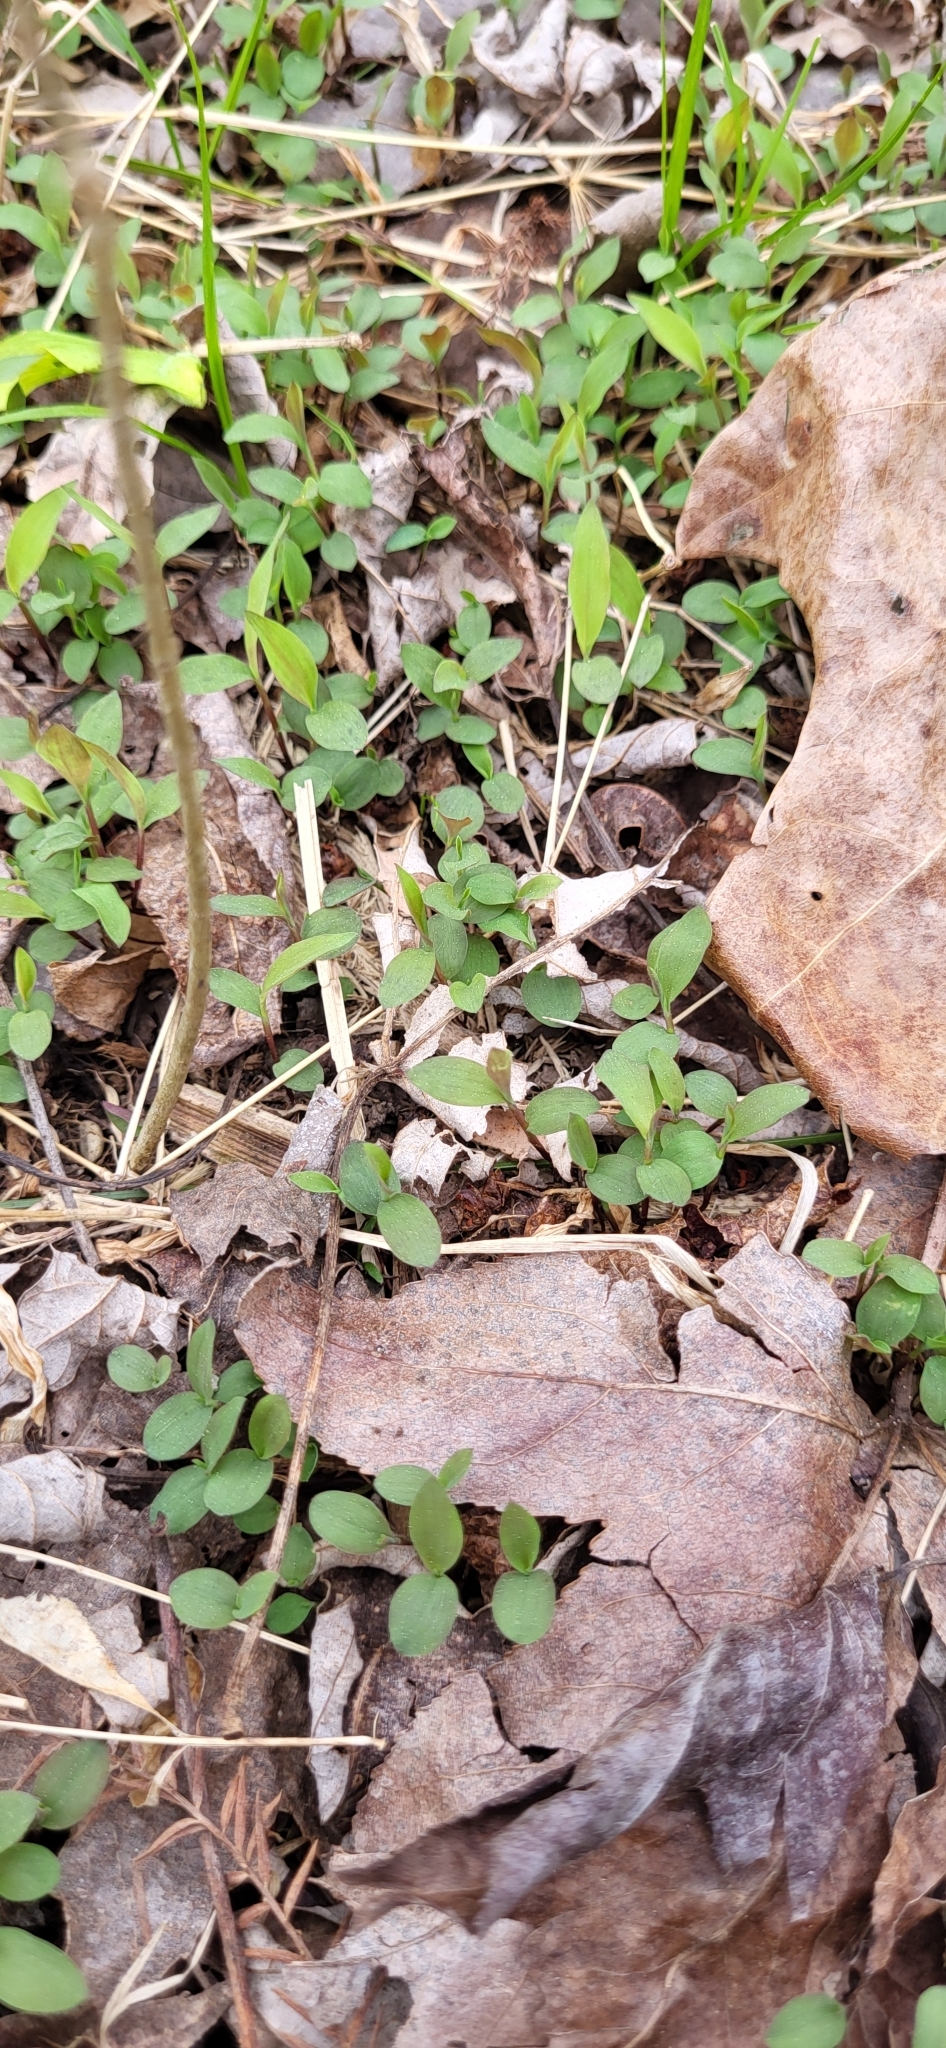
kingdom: Plantae
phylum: Tracheophyta
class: Liliopsida
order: Poales
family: Poaceae
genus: Microstegium
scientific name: Microstegium vimineum
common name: Japanese stiltgrass
